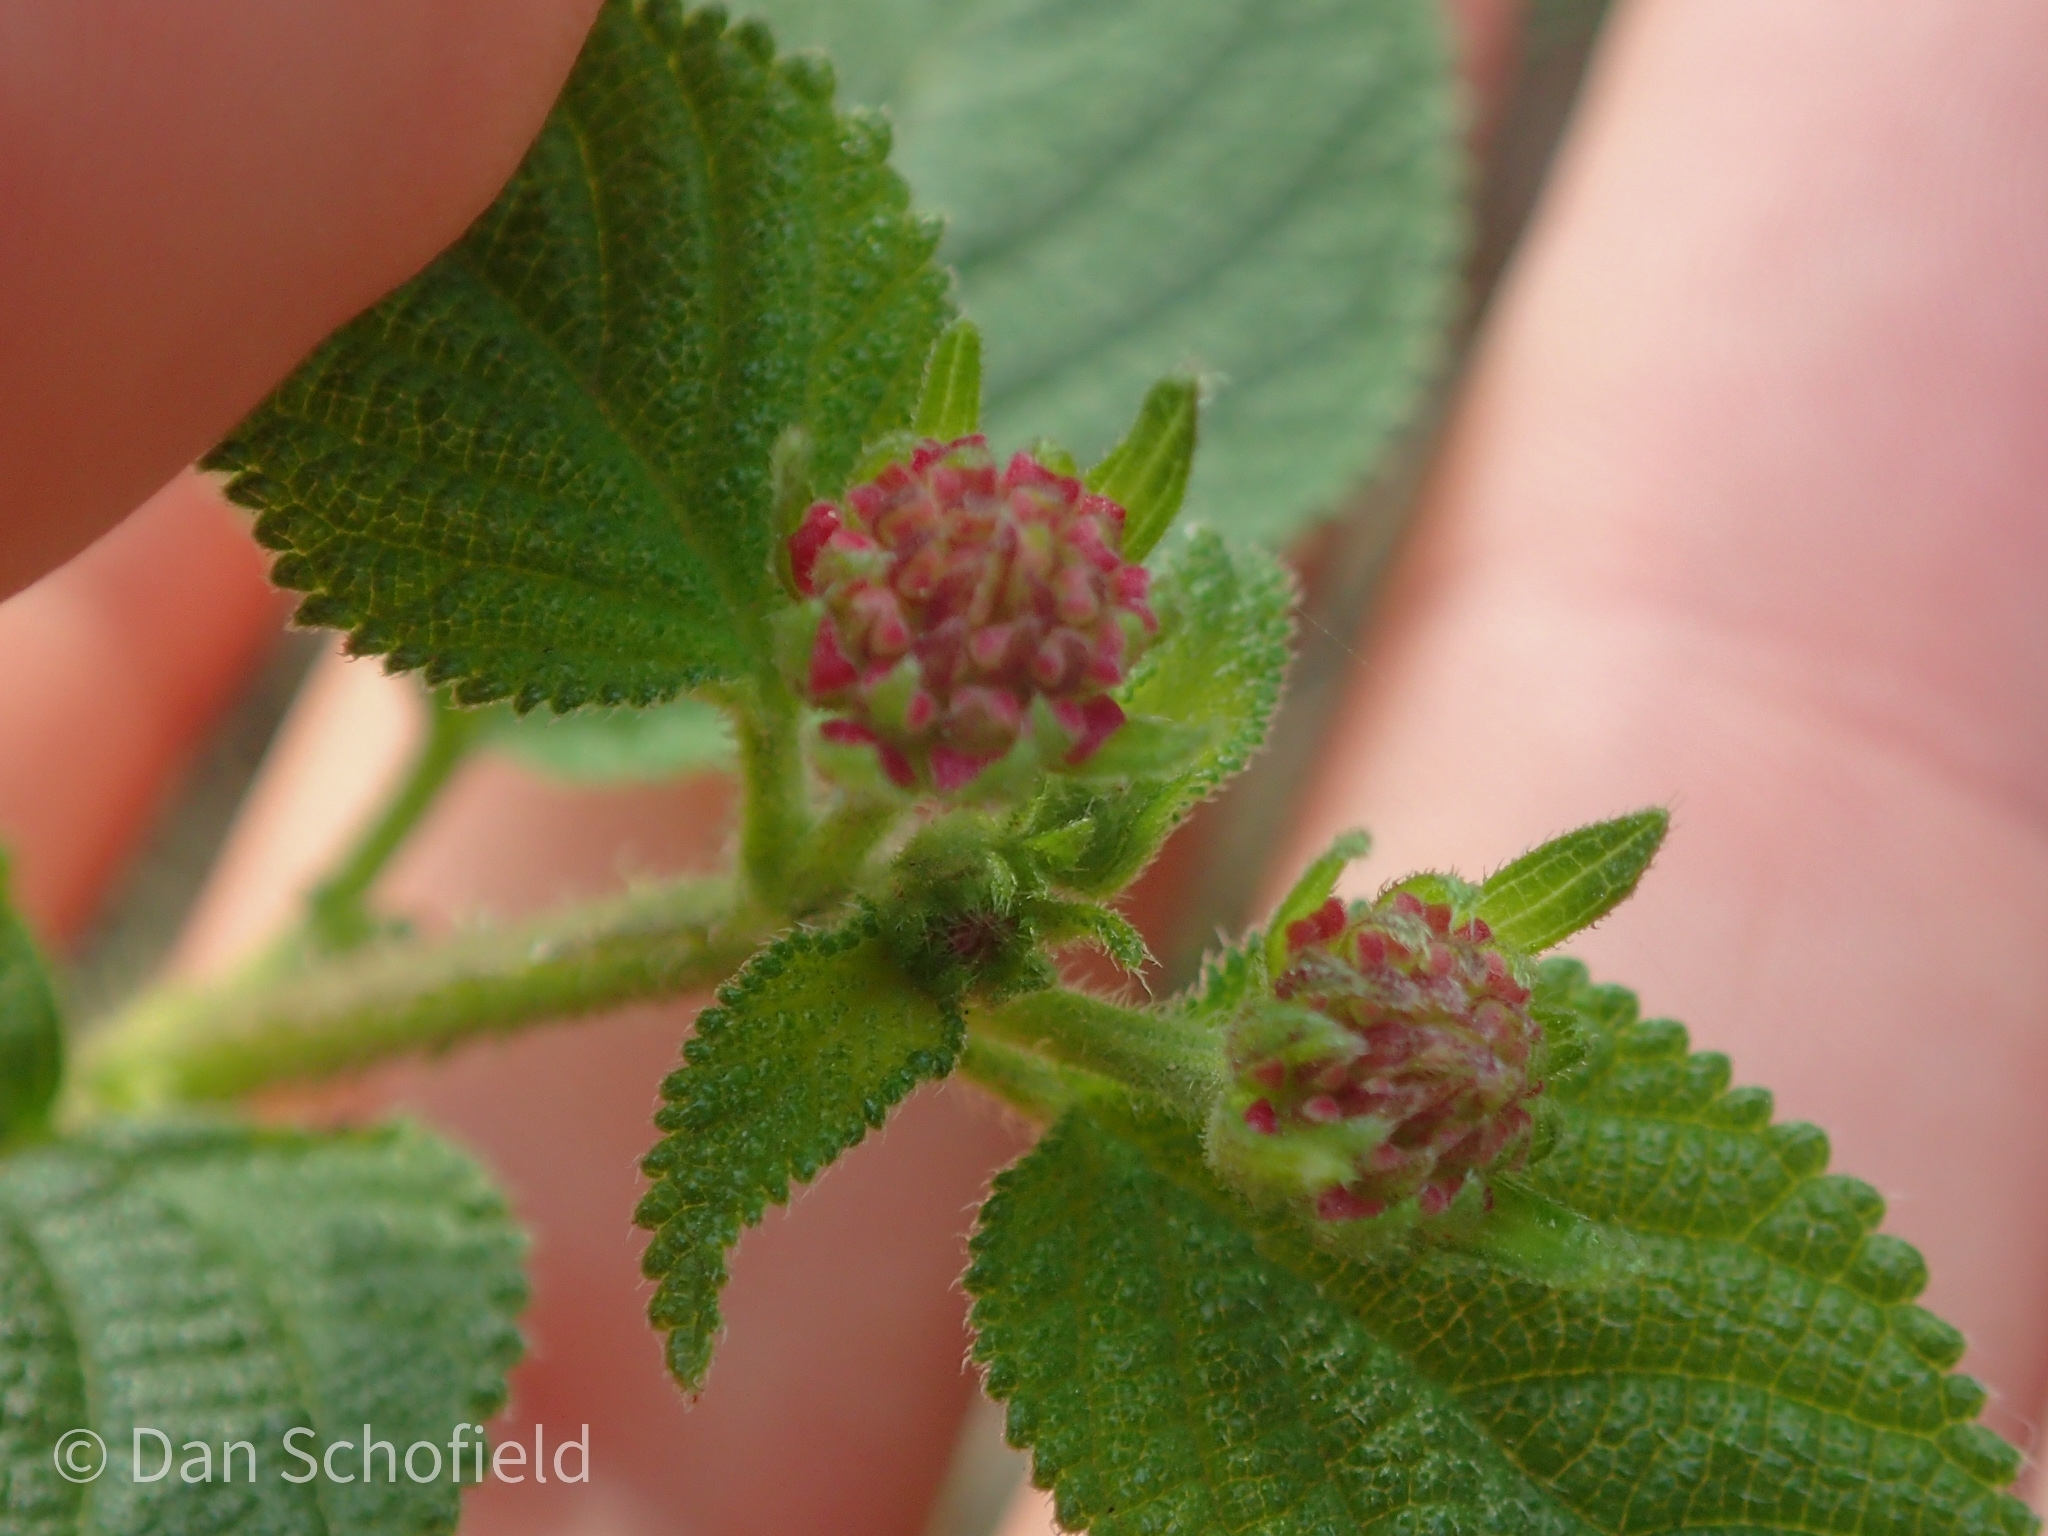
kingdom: Plantae
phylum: Tracheophyta
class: Magnoliopsida
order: Lamiales
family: Verbenaceae
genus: Lantana
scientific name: Lantana camara
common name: Lantana
